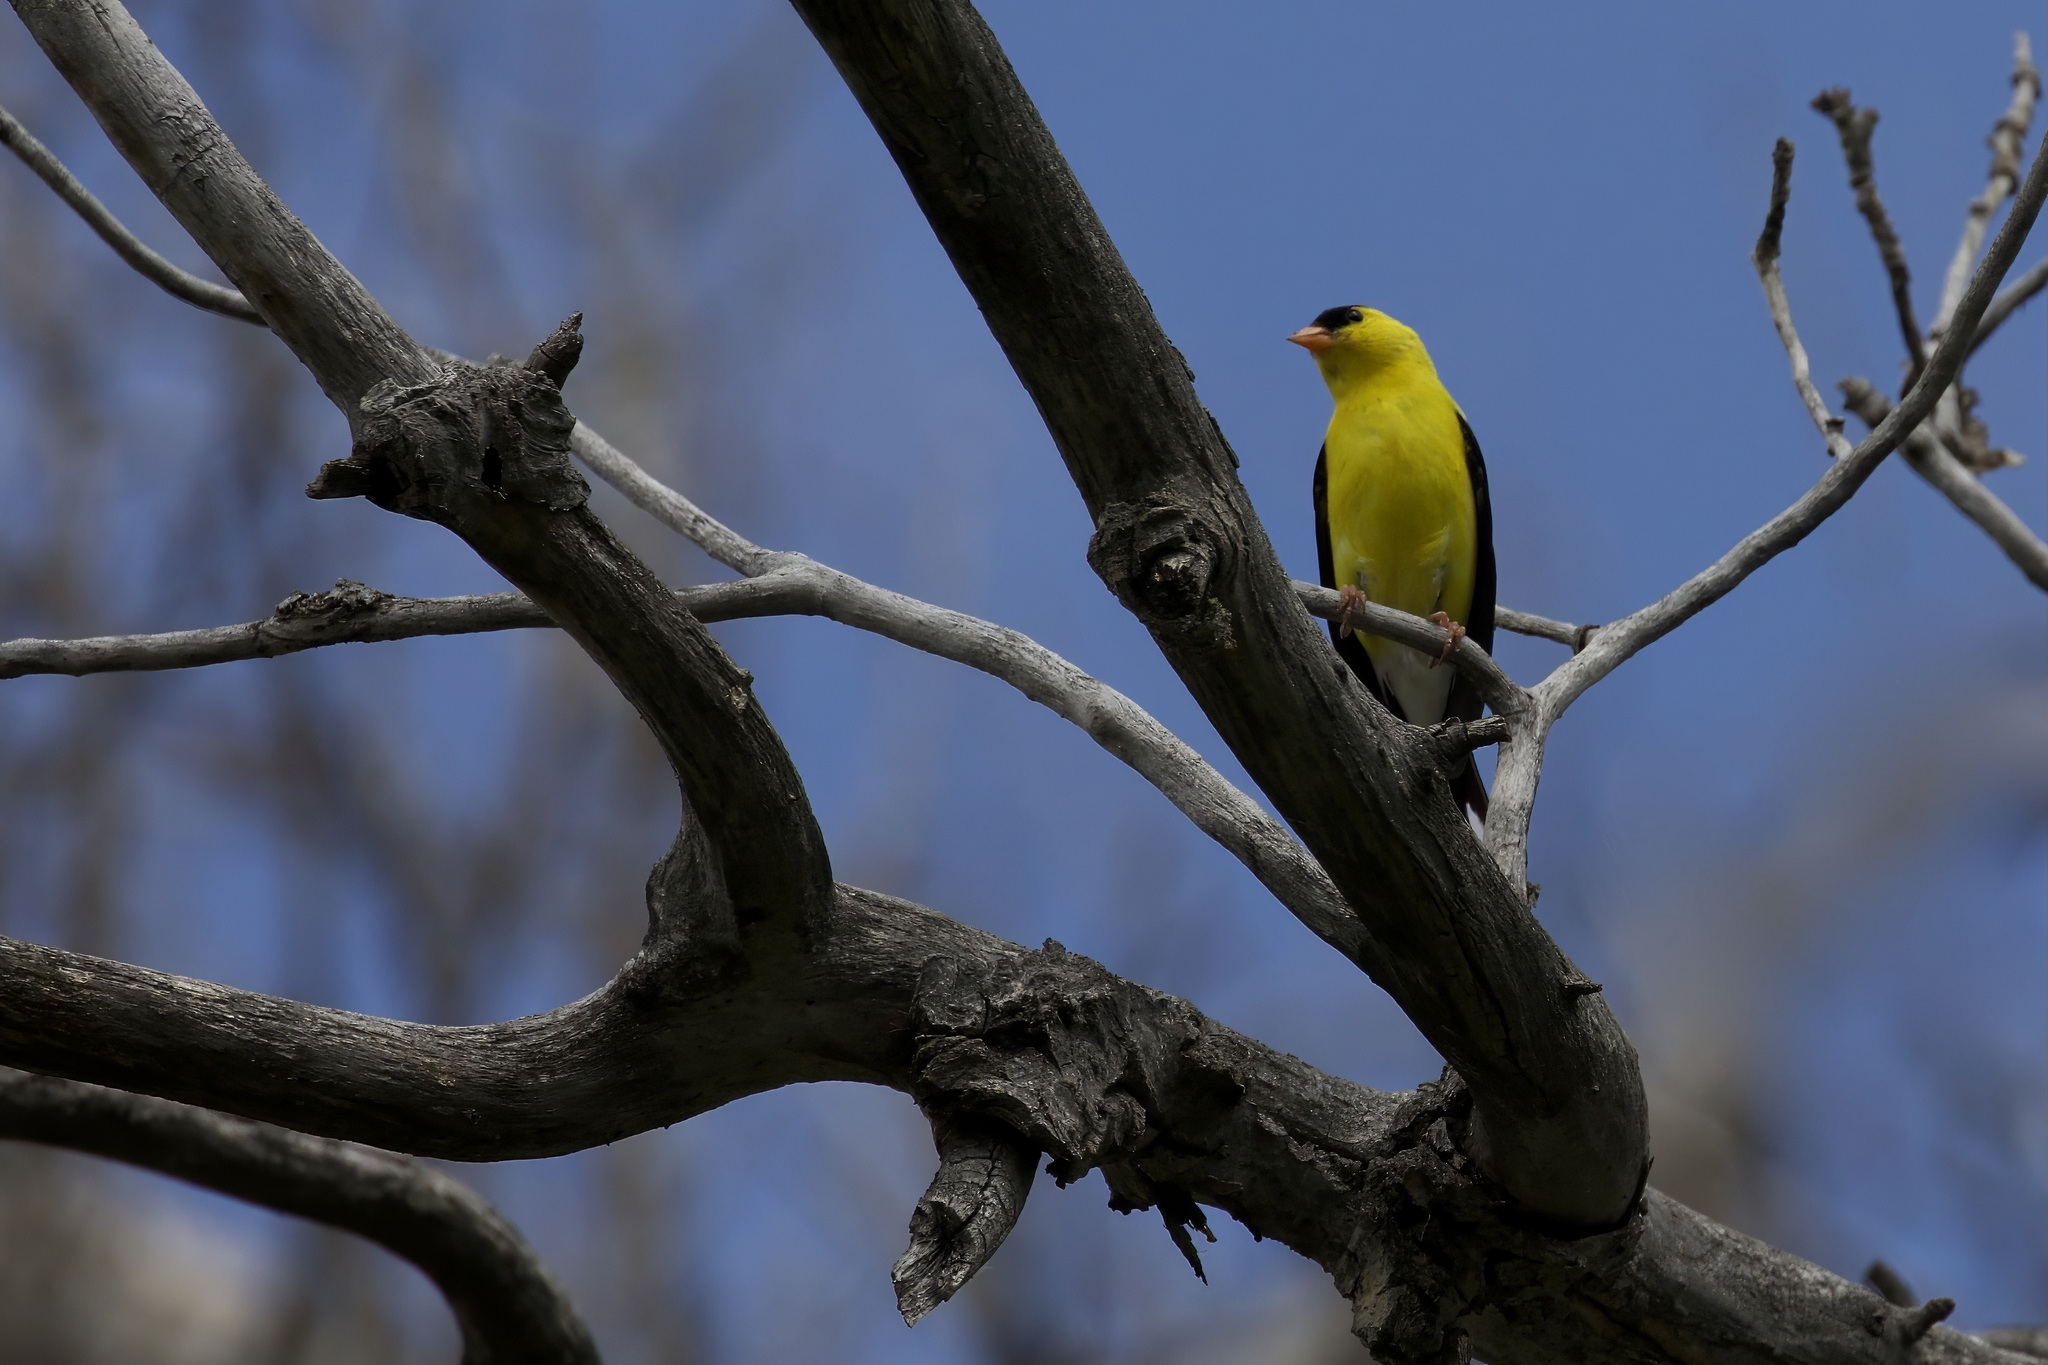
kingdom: Animalia
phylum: Chordata
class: Aves
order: Passeriformes
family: Fringillidae
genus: Spinus
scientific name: Spinus tristis
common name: American goldfinch
